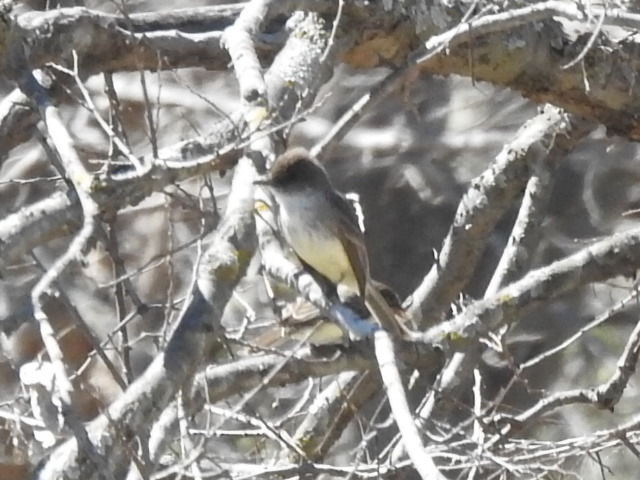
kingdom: Animalia
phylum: Chordata
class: Aves
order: Passeriformes
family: Tyrannidae
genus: Sayornis
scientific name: Sayornis phoebe
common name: Eastern phoebe
